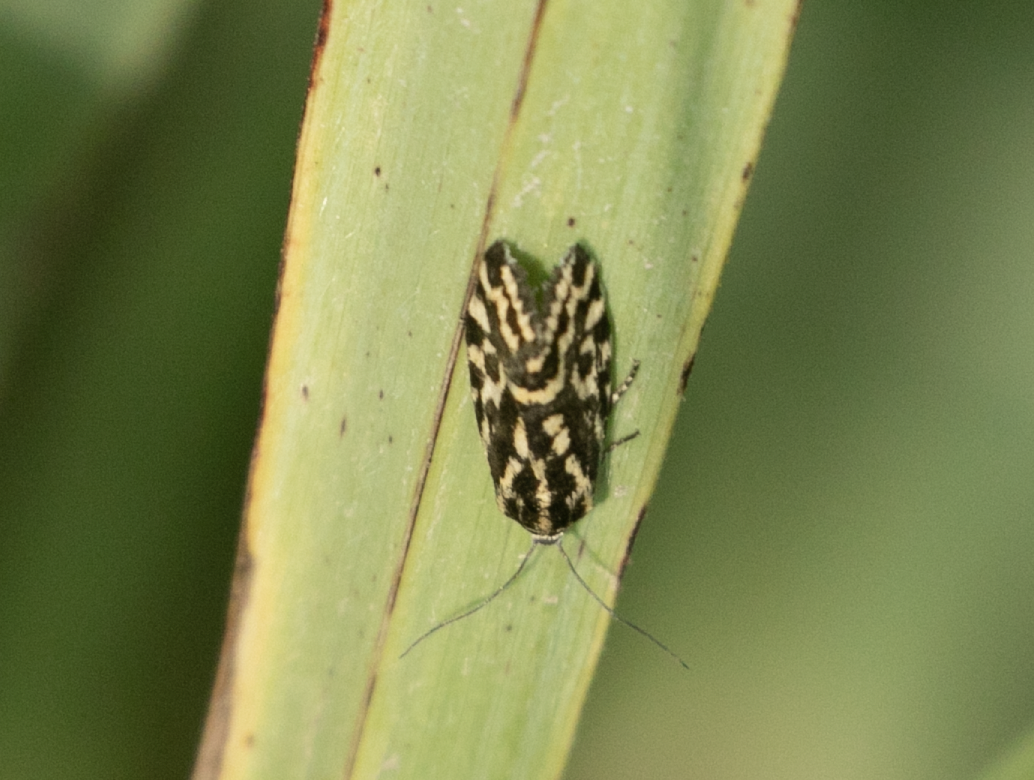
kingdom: Animalia
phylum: Arthropoda
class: Insecta
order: Lepidoptera
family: Noctuidae
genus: Acontia
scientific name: Acontia trabealis
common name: Spotted sulphur
